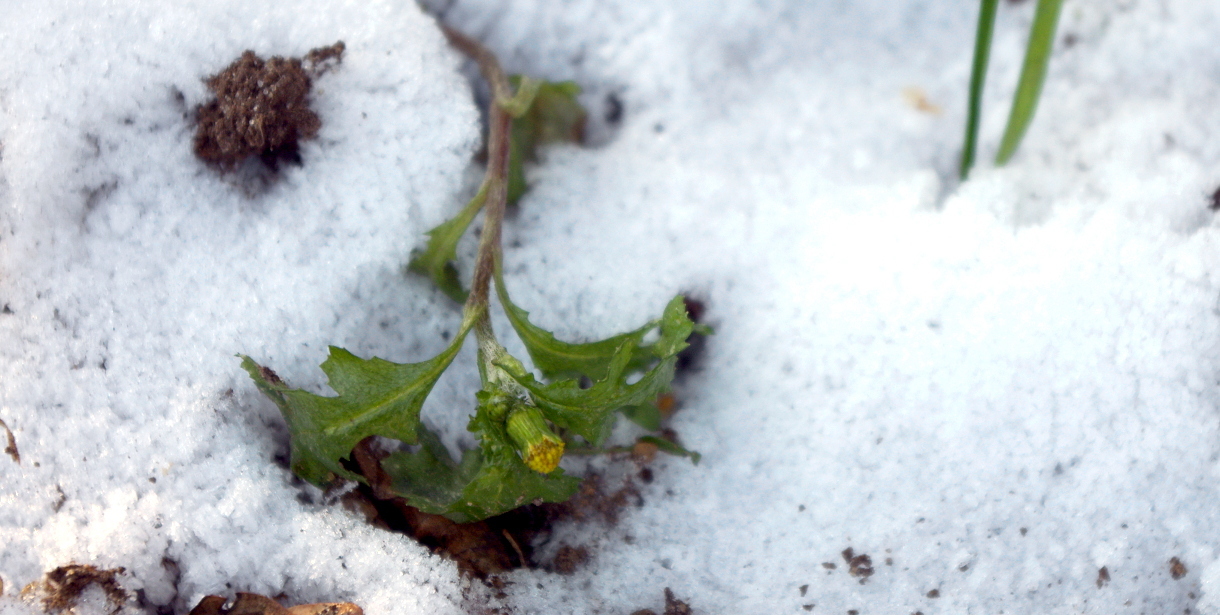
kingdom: Plantae
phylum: Tracheophyta
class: Magnoliopsida
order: Asterales
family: Asteraceae
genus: Senecio
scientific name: Senecio vulgaris
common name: Old-man-in-the-spring
